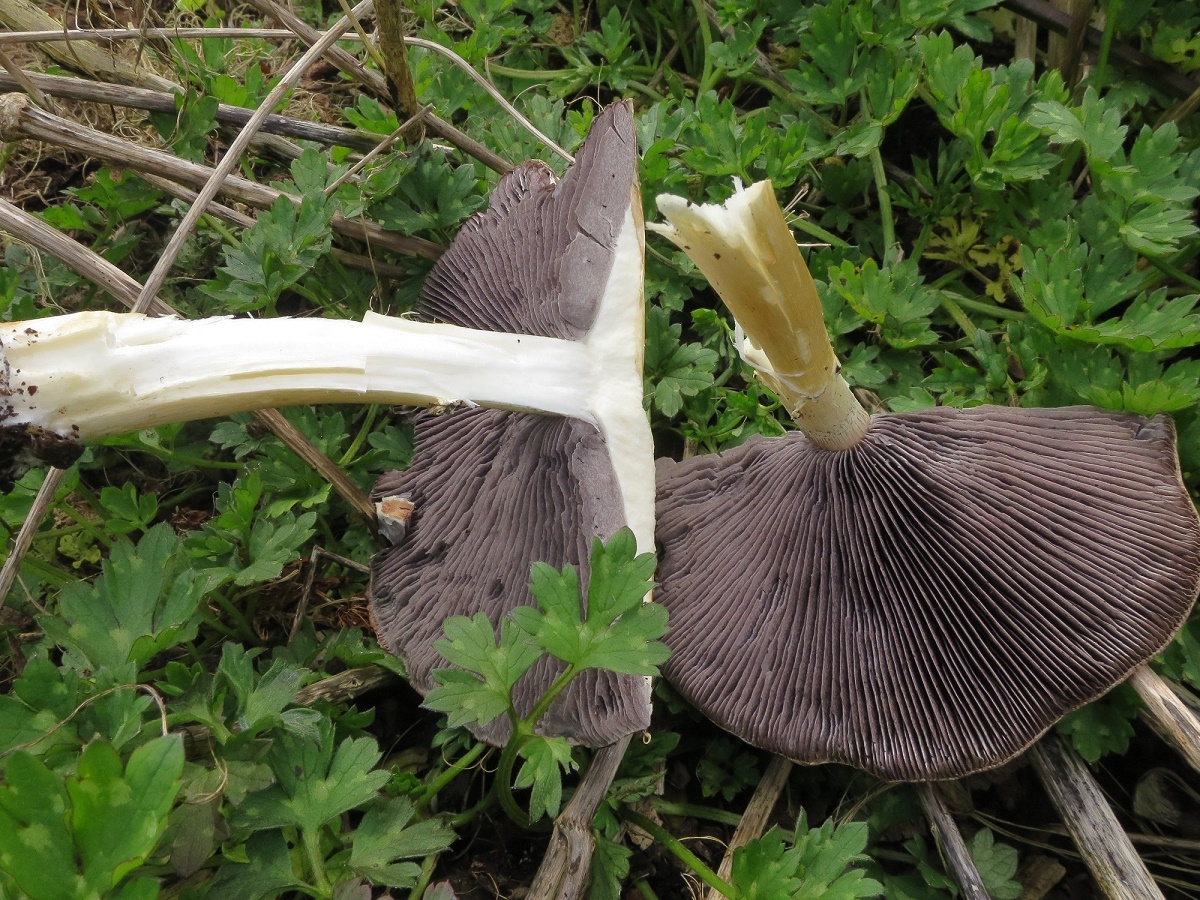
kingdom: Fungi
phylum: Basidiomycota
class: Agaricomycetes
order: Agaricales
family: Strophariaceae
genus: Stropharia
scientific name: Stropharia rugosoannulata
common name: Wine roundhead
